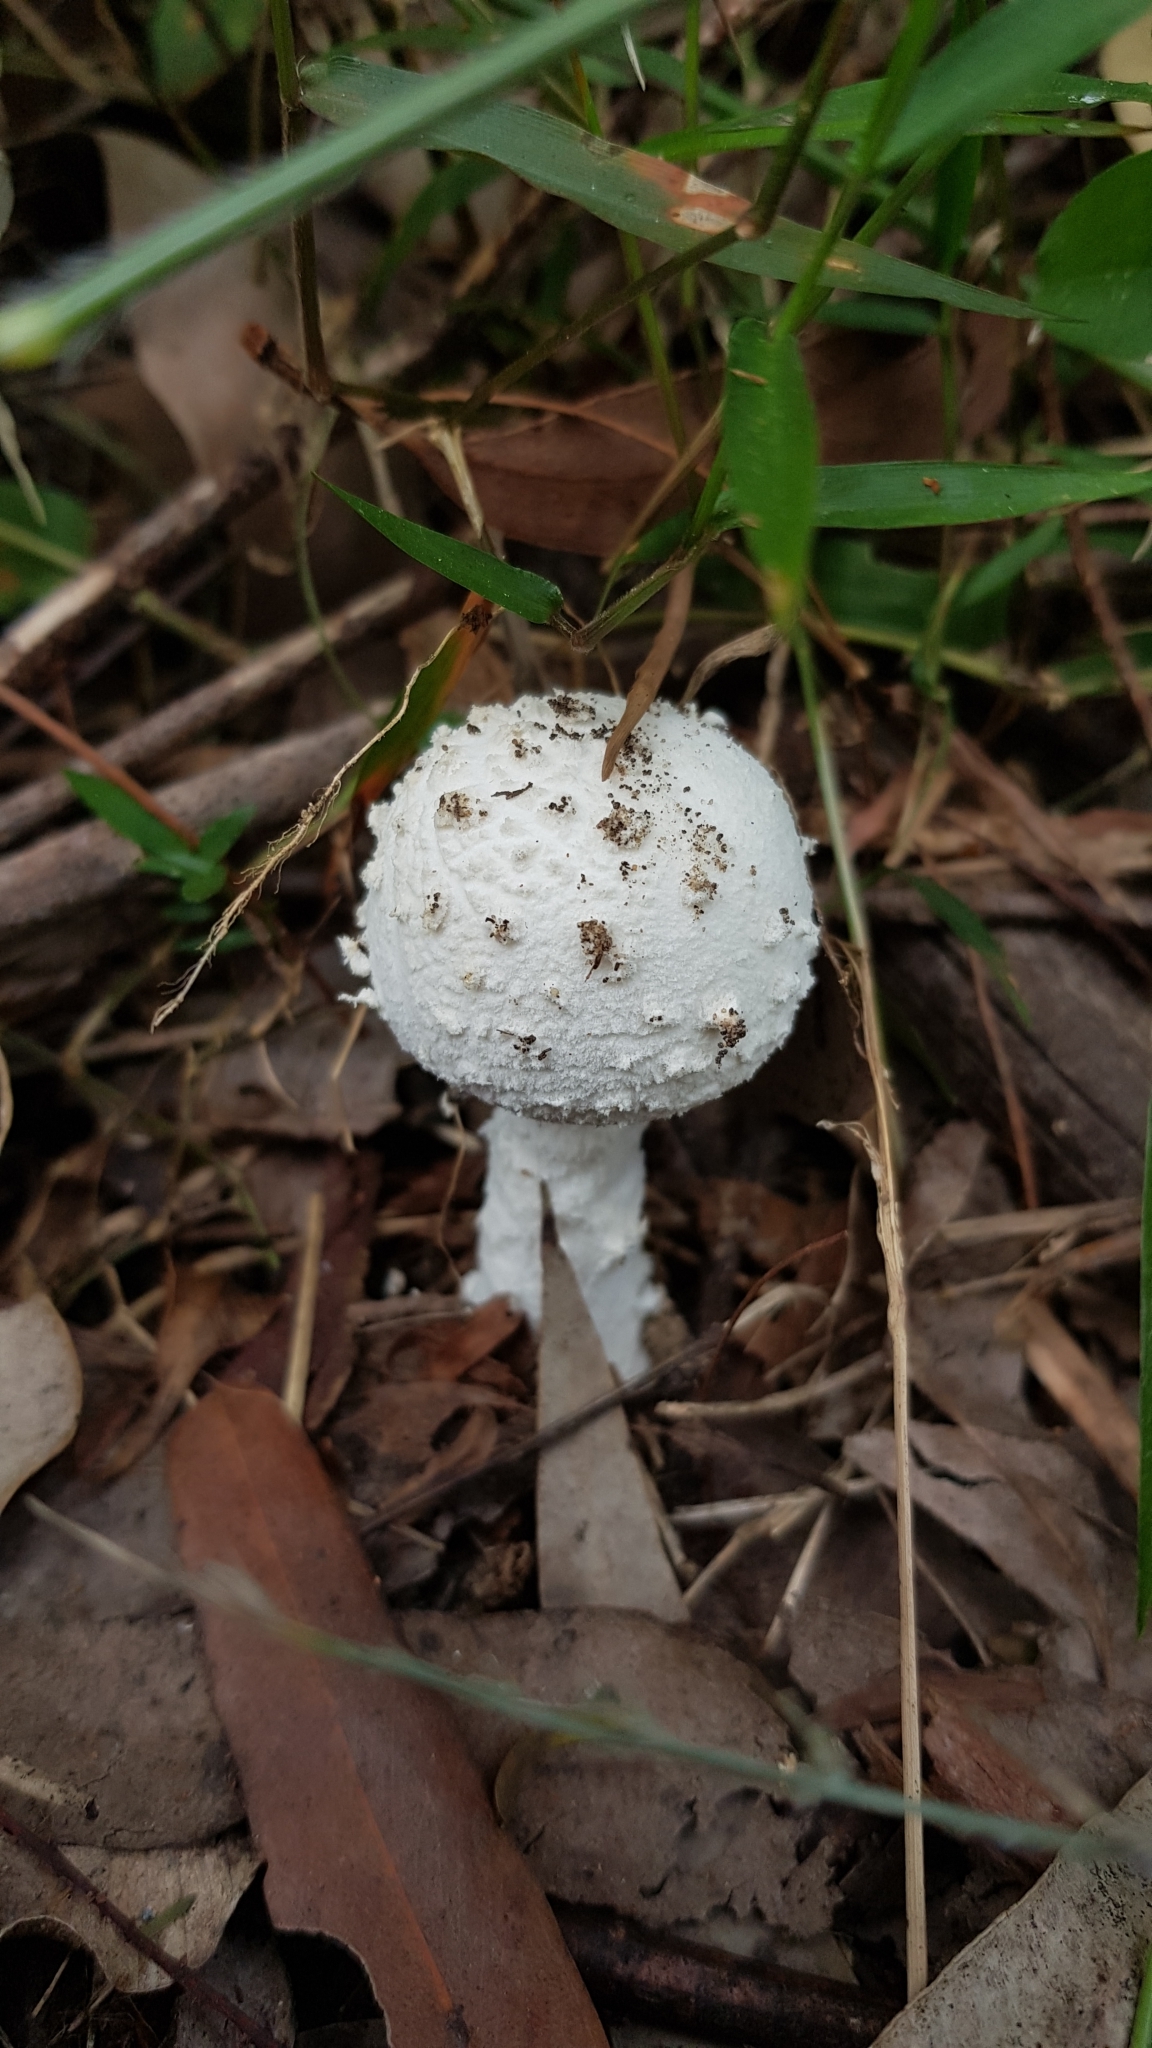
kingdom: Fungi
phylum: Basidiomycota
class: Agaricomycetes
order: Agaricales
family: Amanitaceae
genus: Amanita
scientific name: Amanita pyramidifera
